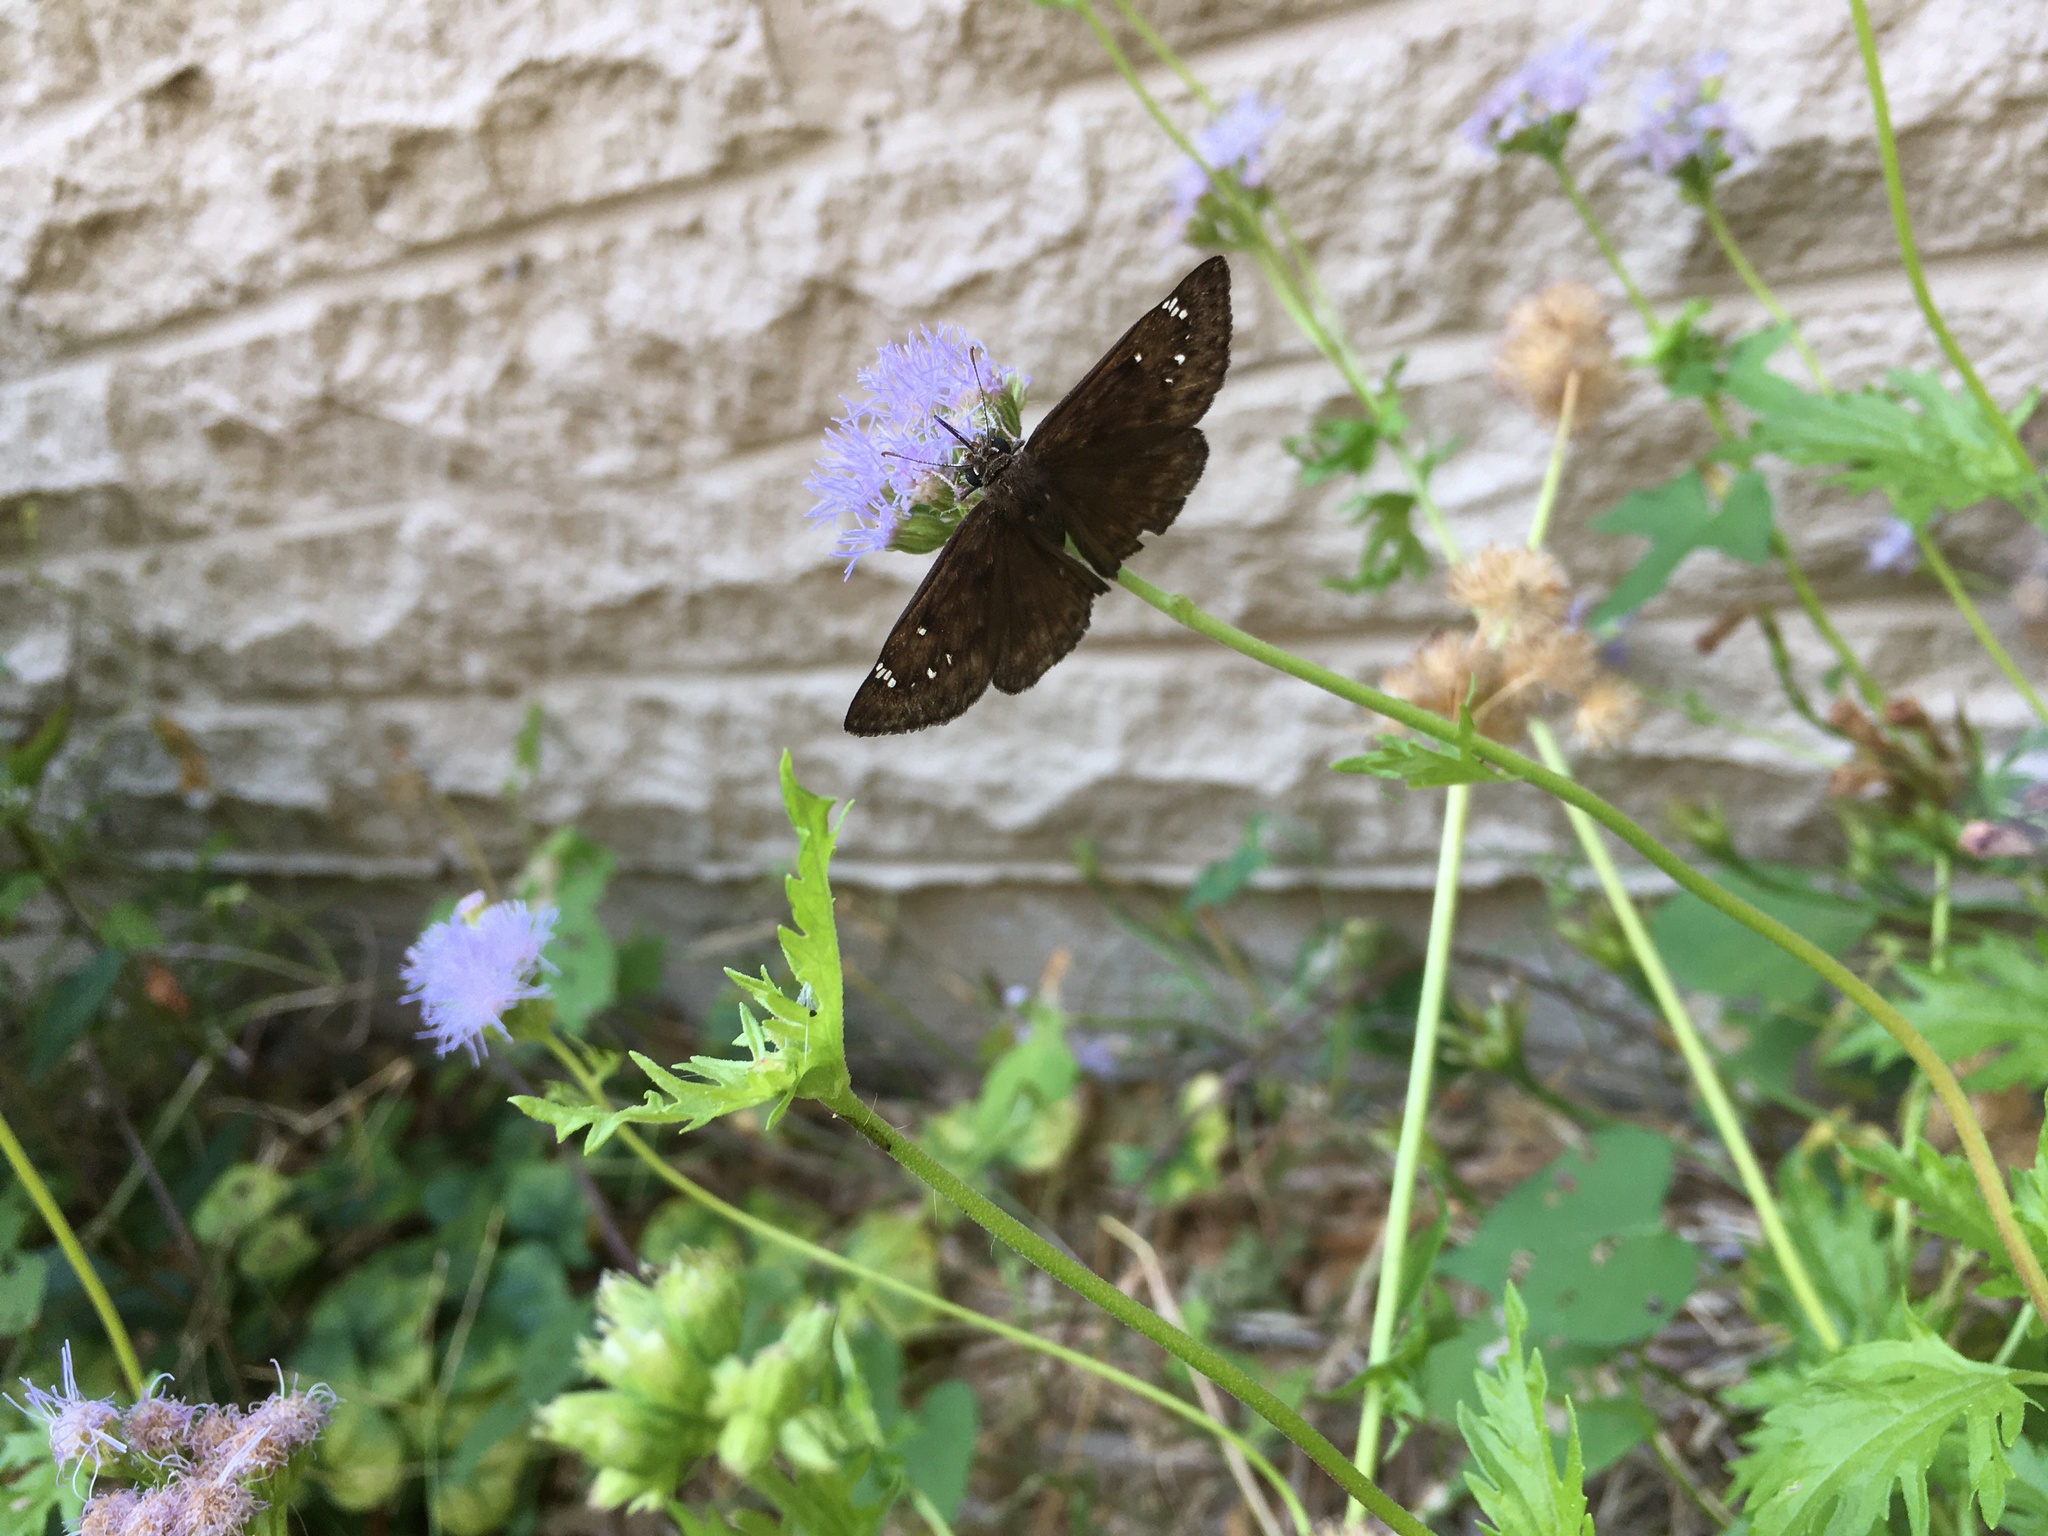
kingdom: Animalia
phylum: Arthropoda
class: Insecta
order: Lepidoptera
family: Hesperiidae
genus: Erynnis
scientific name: Erynnis horatius
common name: Horace's duskywing
